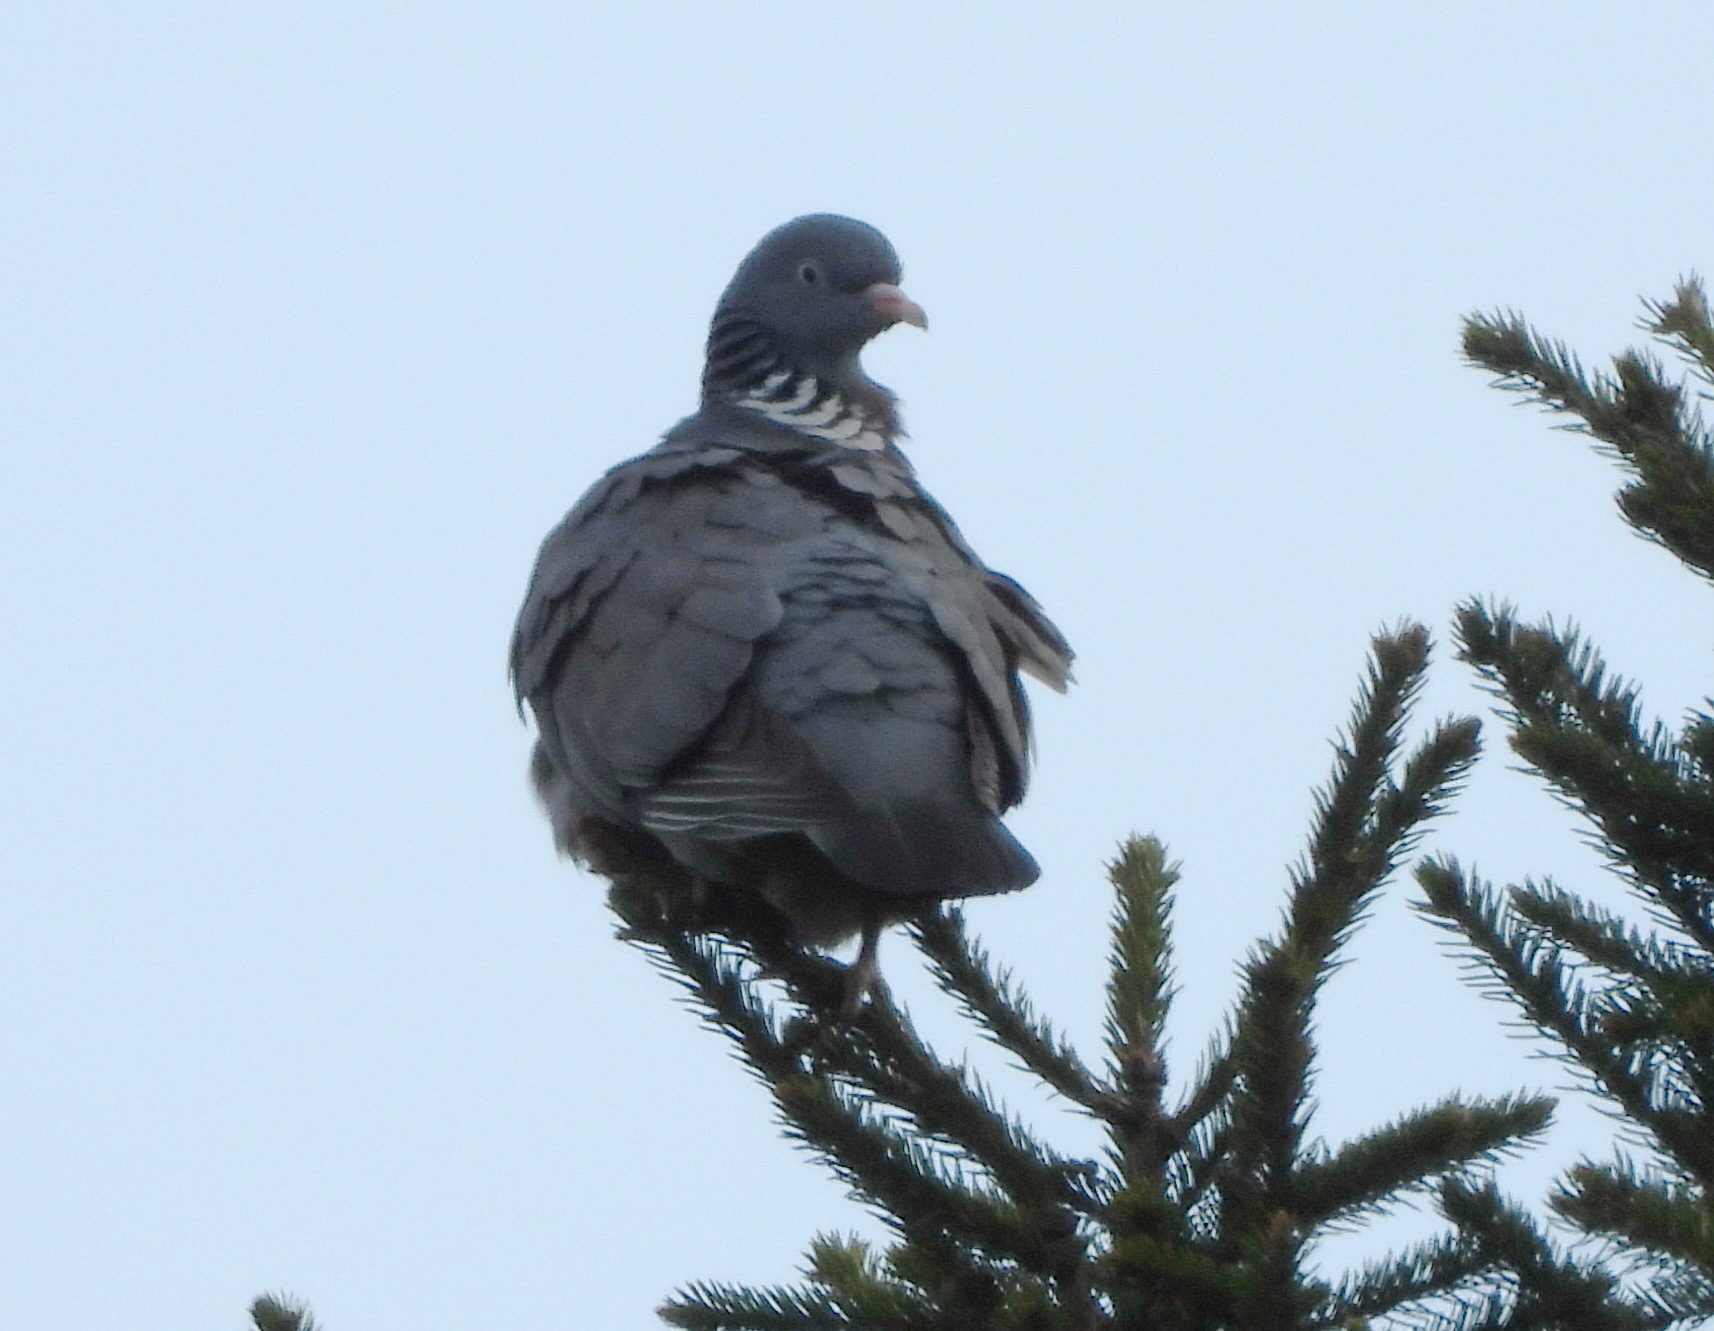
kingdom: Animalia
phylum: Chordata
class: Aves
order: Columbiformes
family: Columbidae
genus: Columba
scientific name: Columba palumbus
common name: Common wood pigeon
